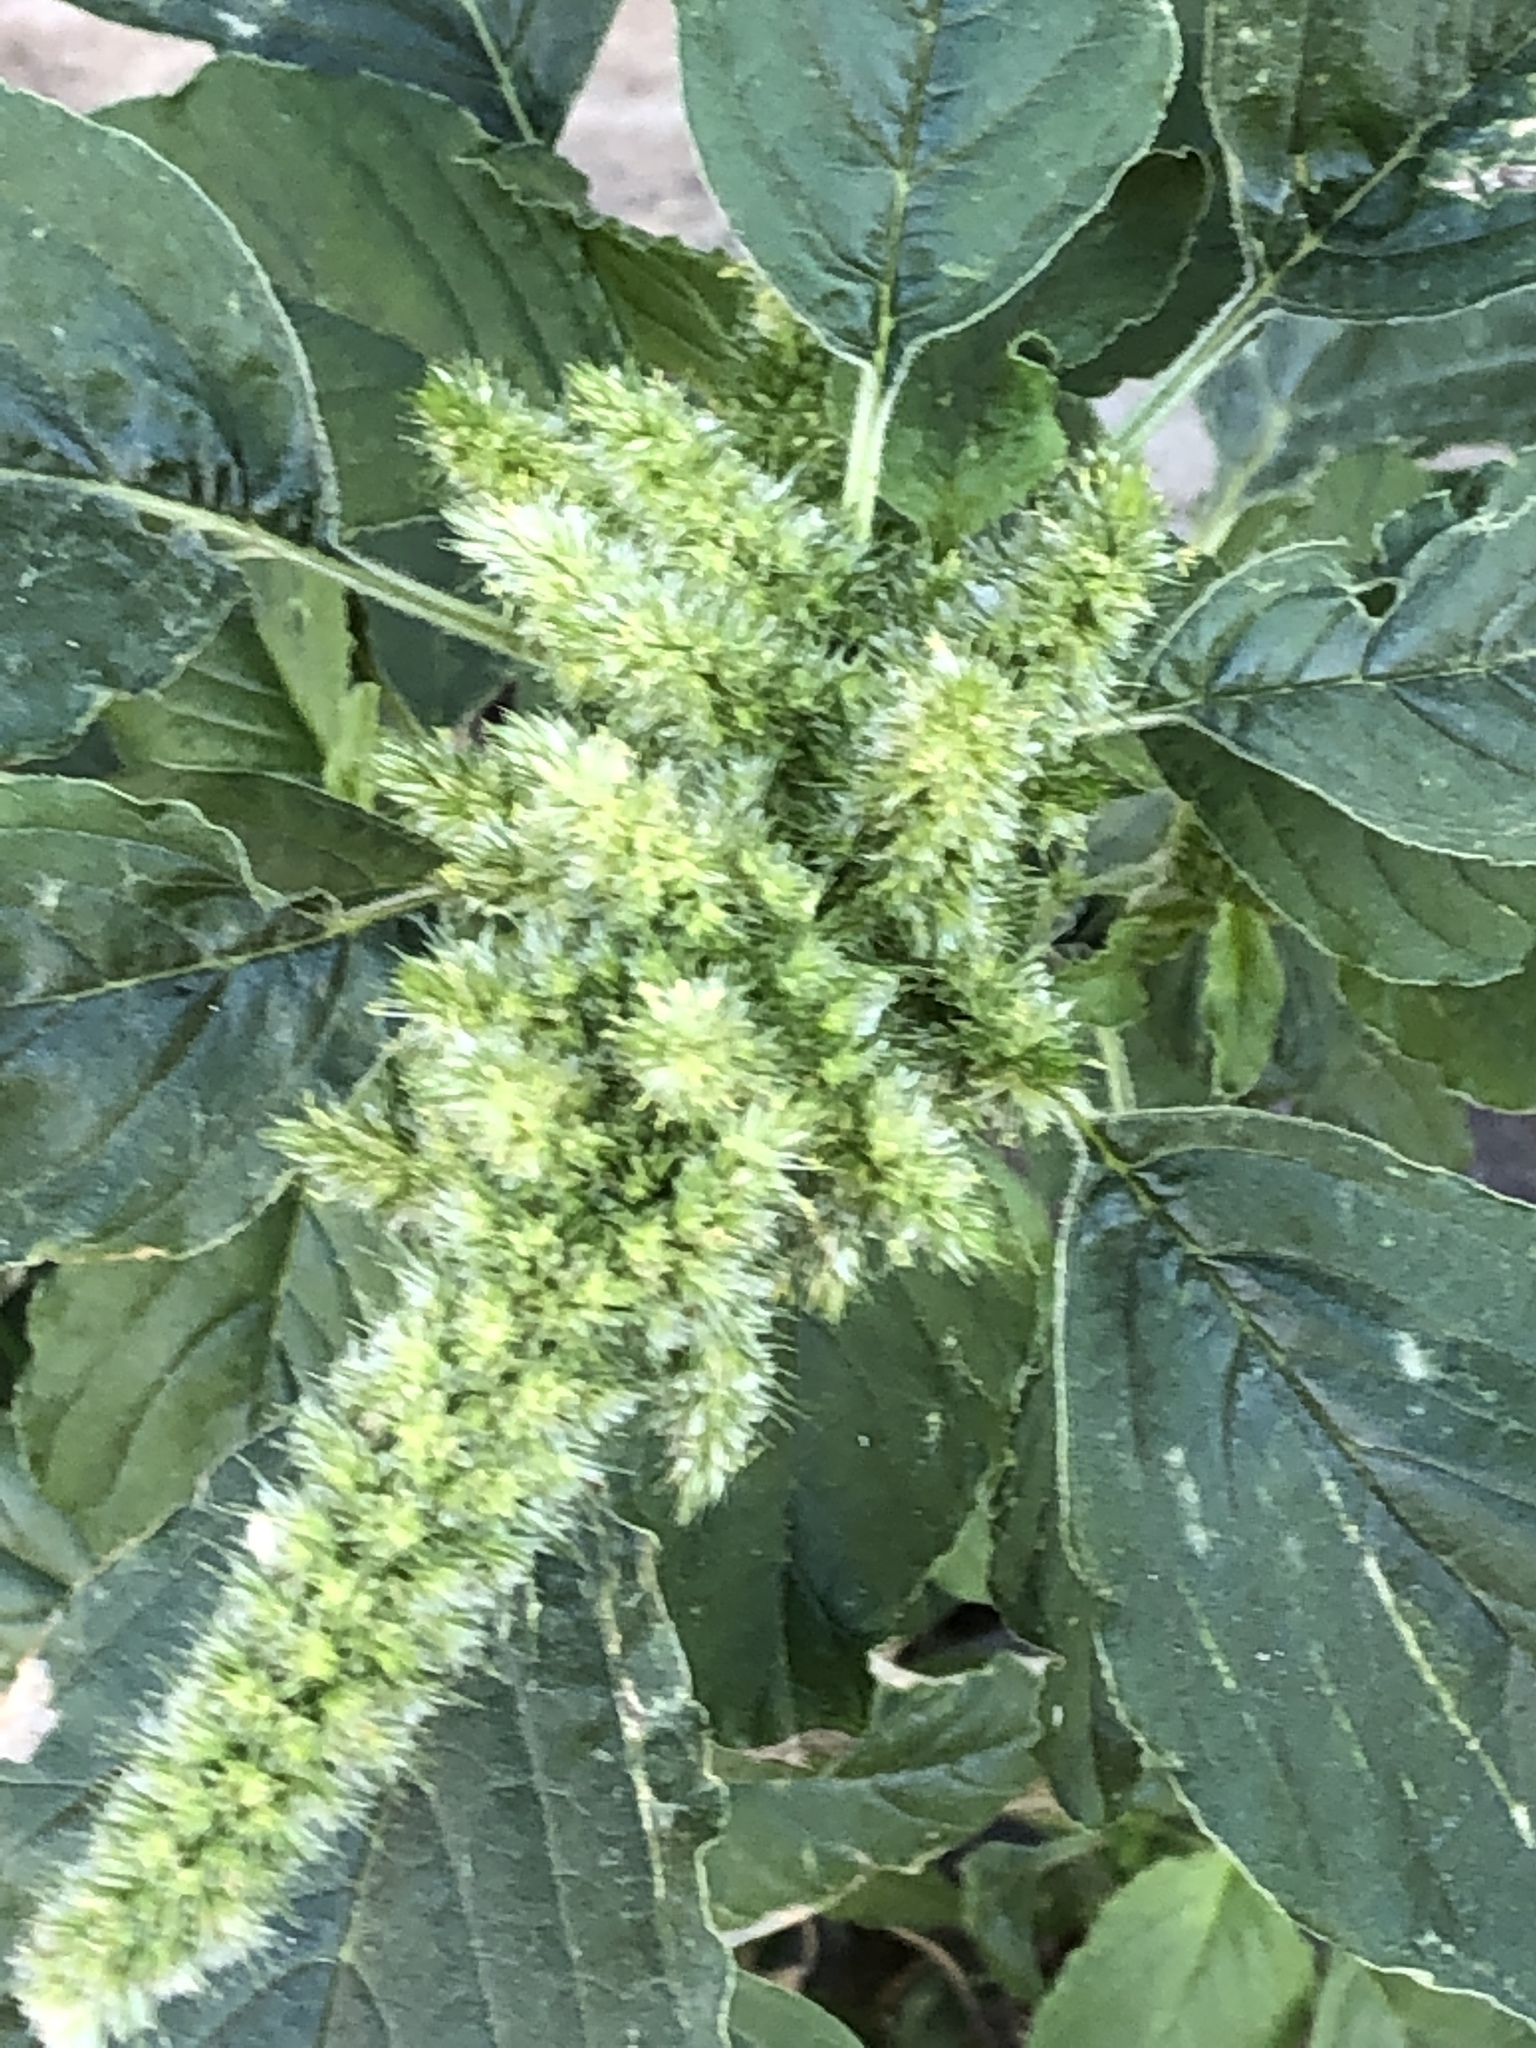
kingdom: Plantae
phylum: Tracheophyta
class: Magnoliopsida
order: Caryophyllales
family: Amaranthaceae
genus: Amaranthus
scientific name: Amaranthus retroflexus
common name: Redroot amaranth
